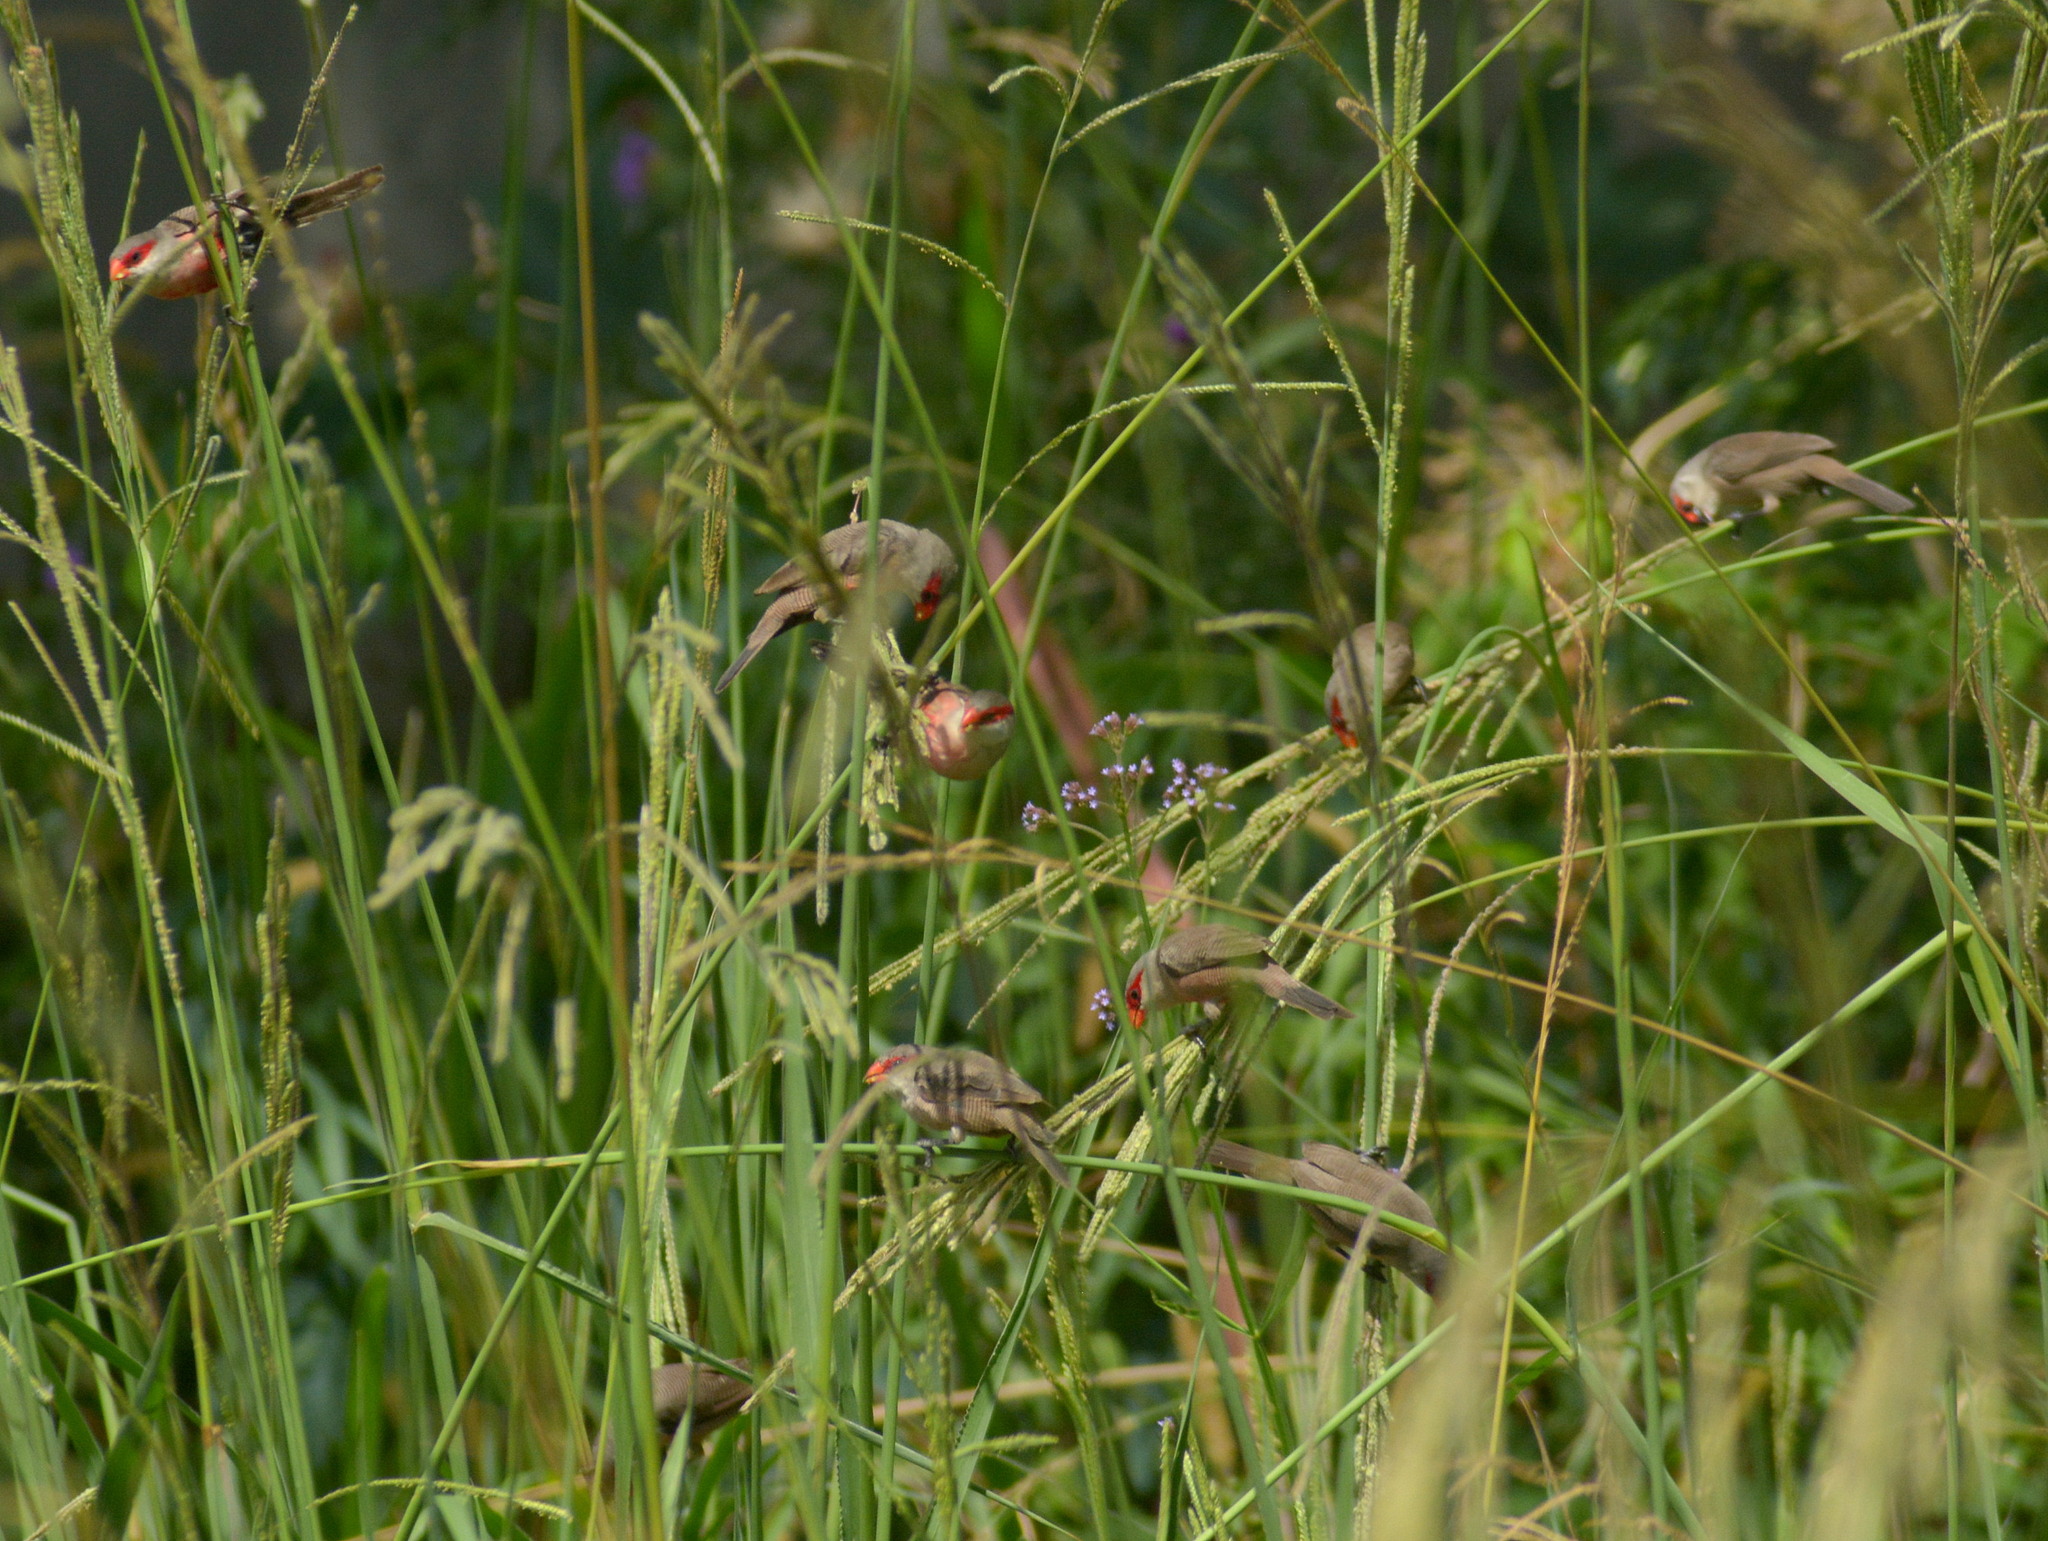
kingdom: Animalia
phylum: Chordata
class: Aves
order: Passeriformes
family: Estrildidae
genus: Estrilda
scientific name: Estrilda astrild
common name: Common waxbill
